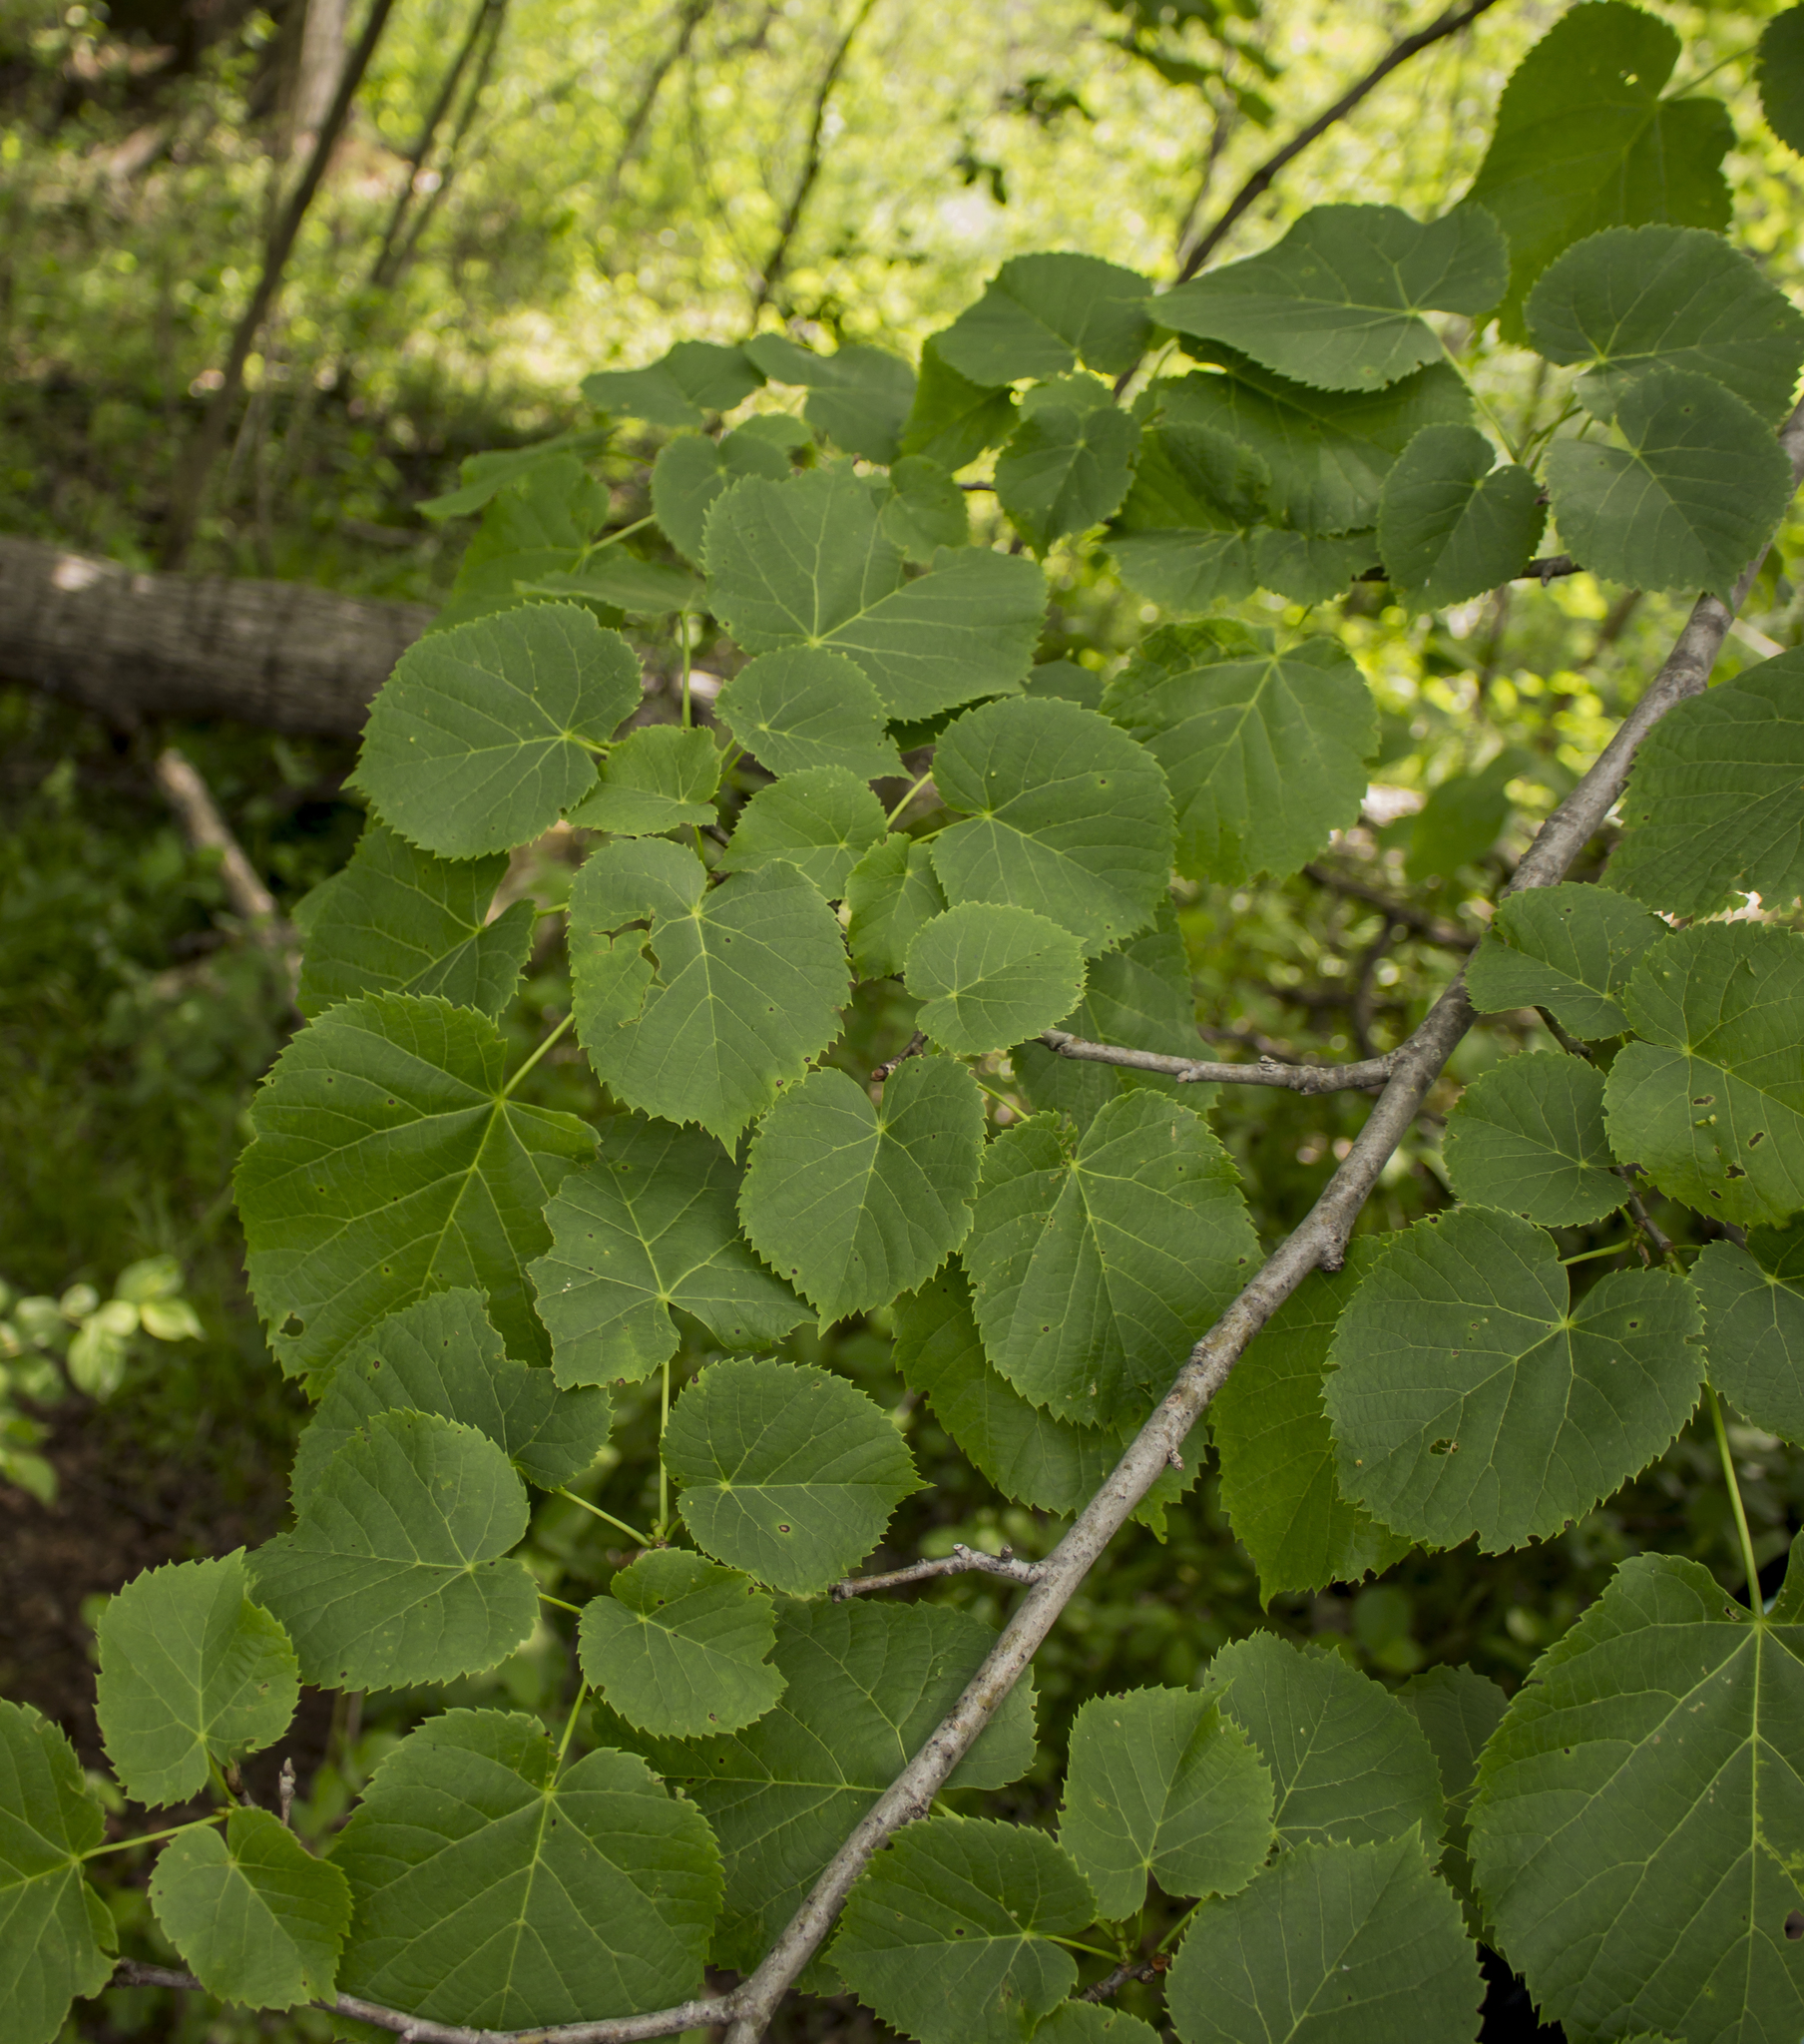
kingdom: Plantae
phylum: Tracheophyta
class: Magnoliopsida
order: Malvales
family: Malvaceae
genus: Tilia
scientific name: Tilia americana
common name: Basswood
